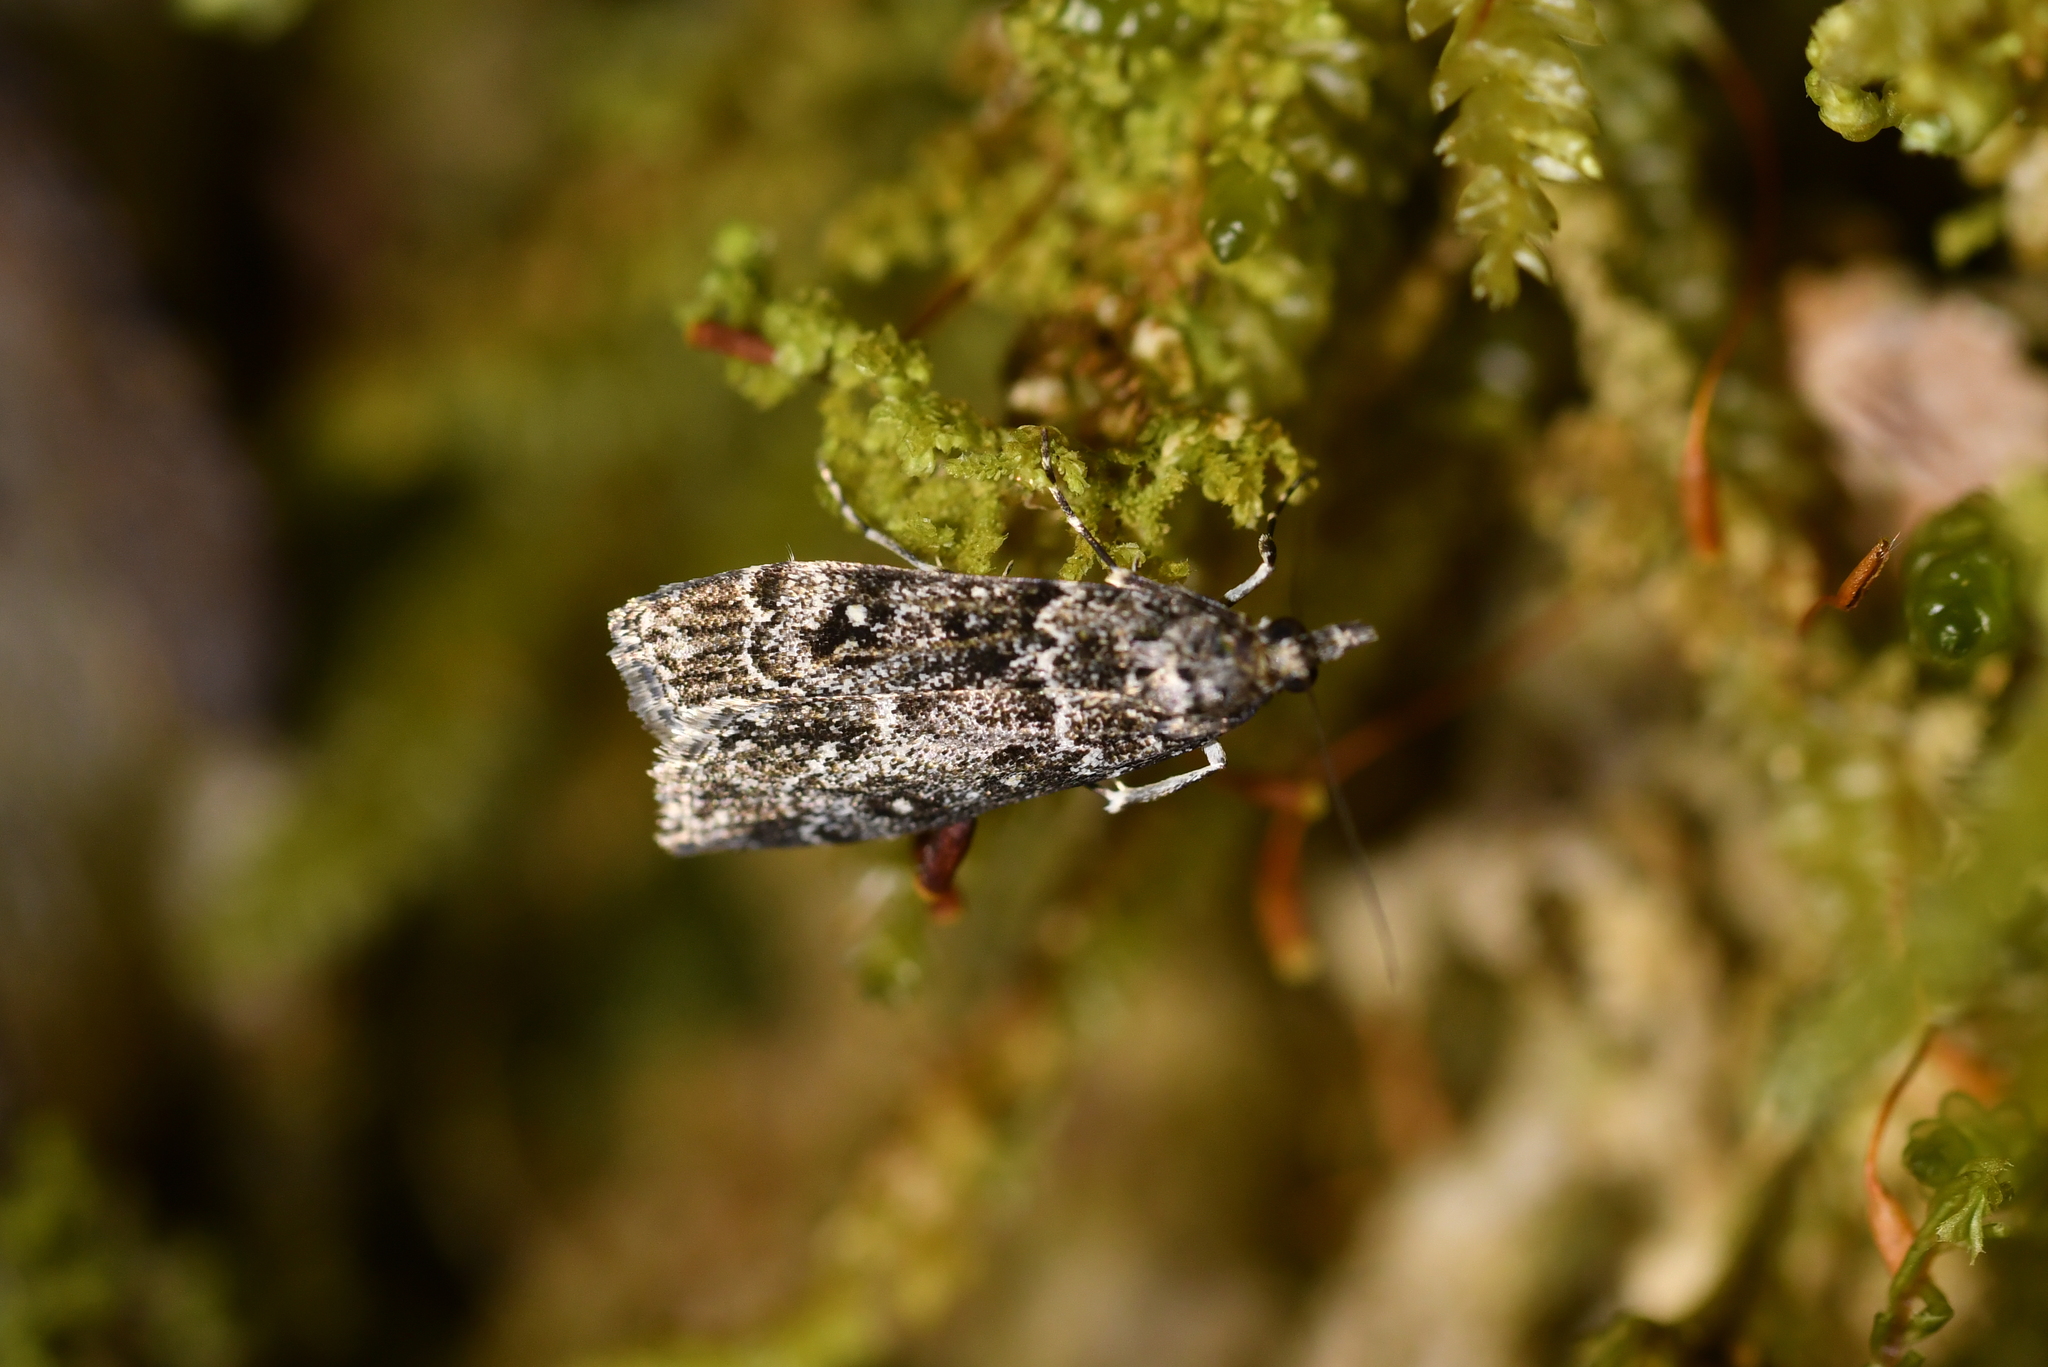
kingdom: Animalia
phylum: Arthropoda
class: Insecta
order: Lepidoptera
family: Crambidae
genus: Eudonia
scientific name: Eudonia philerga
